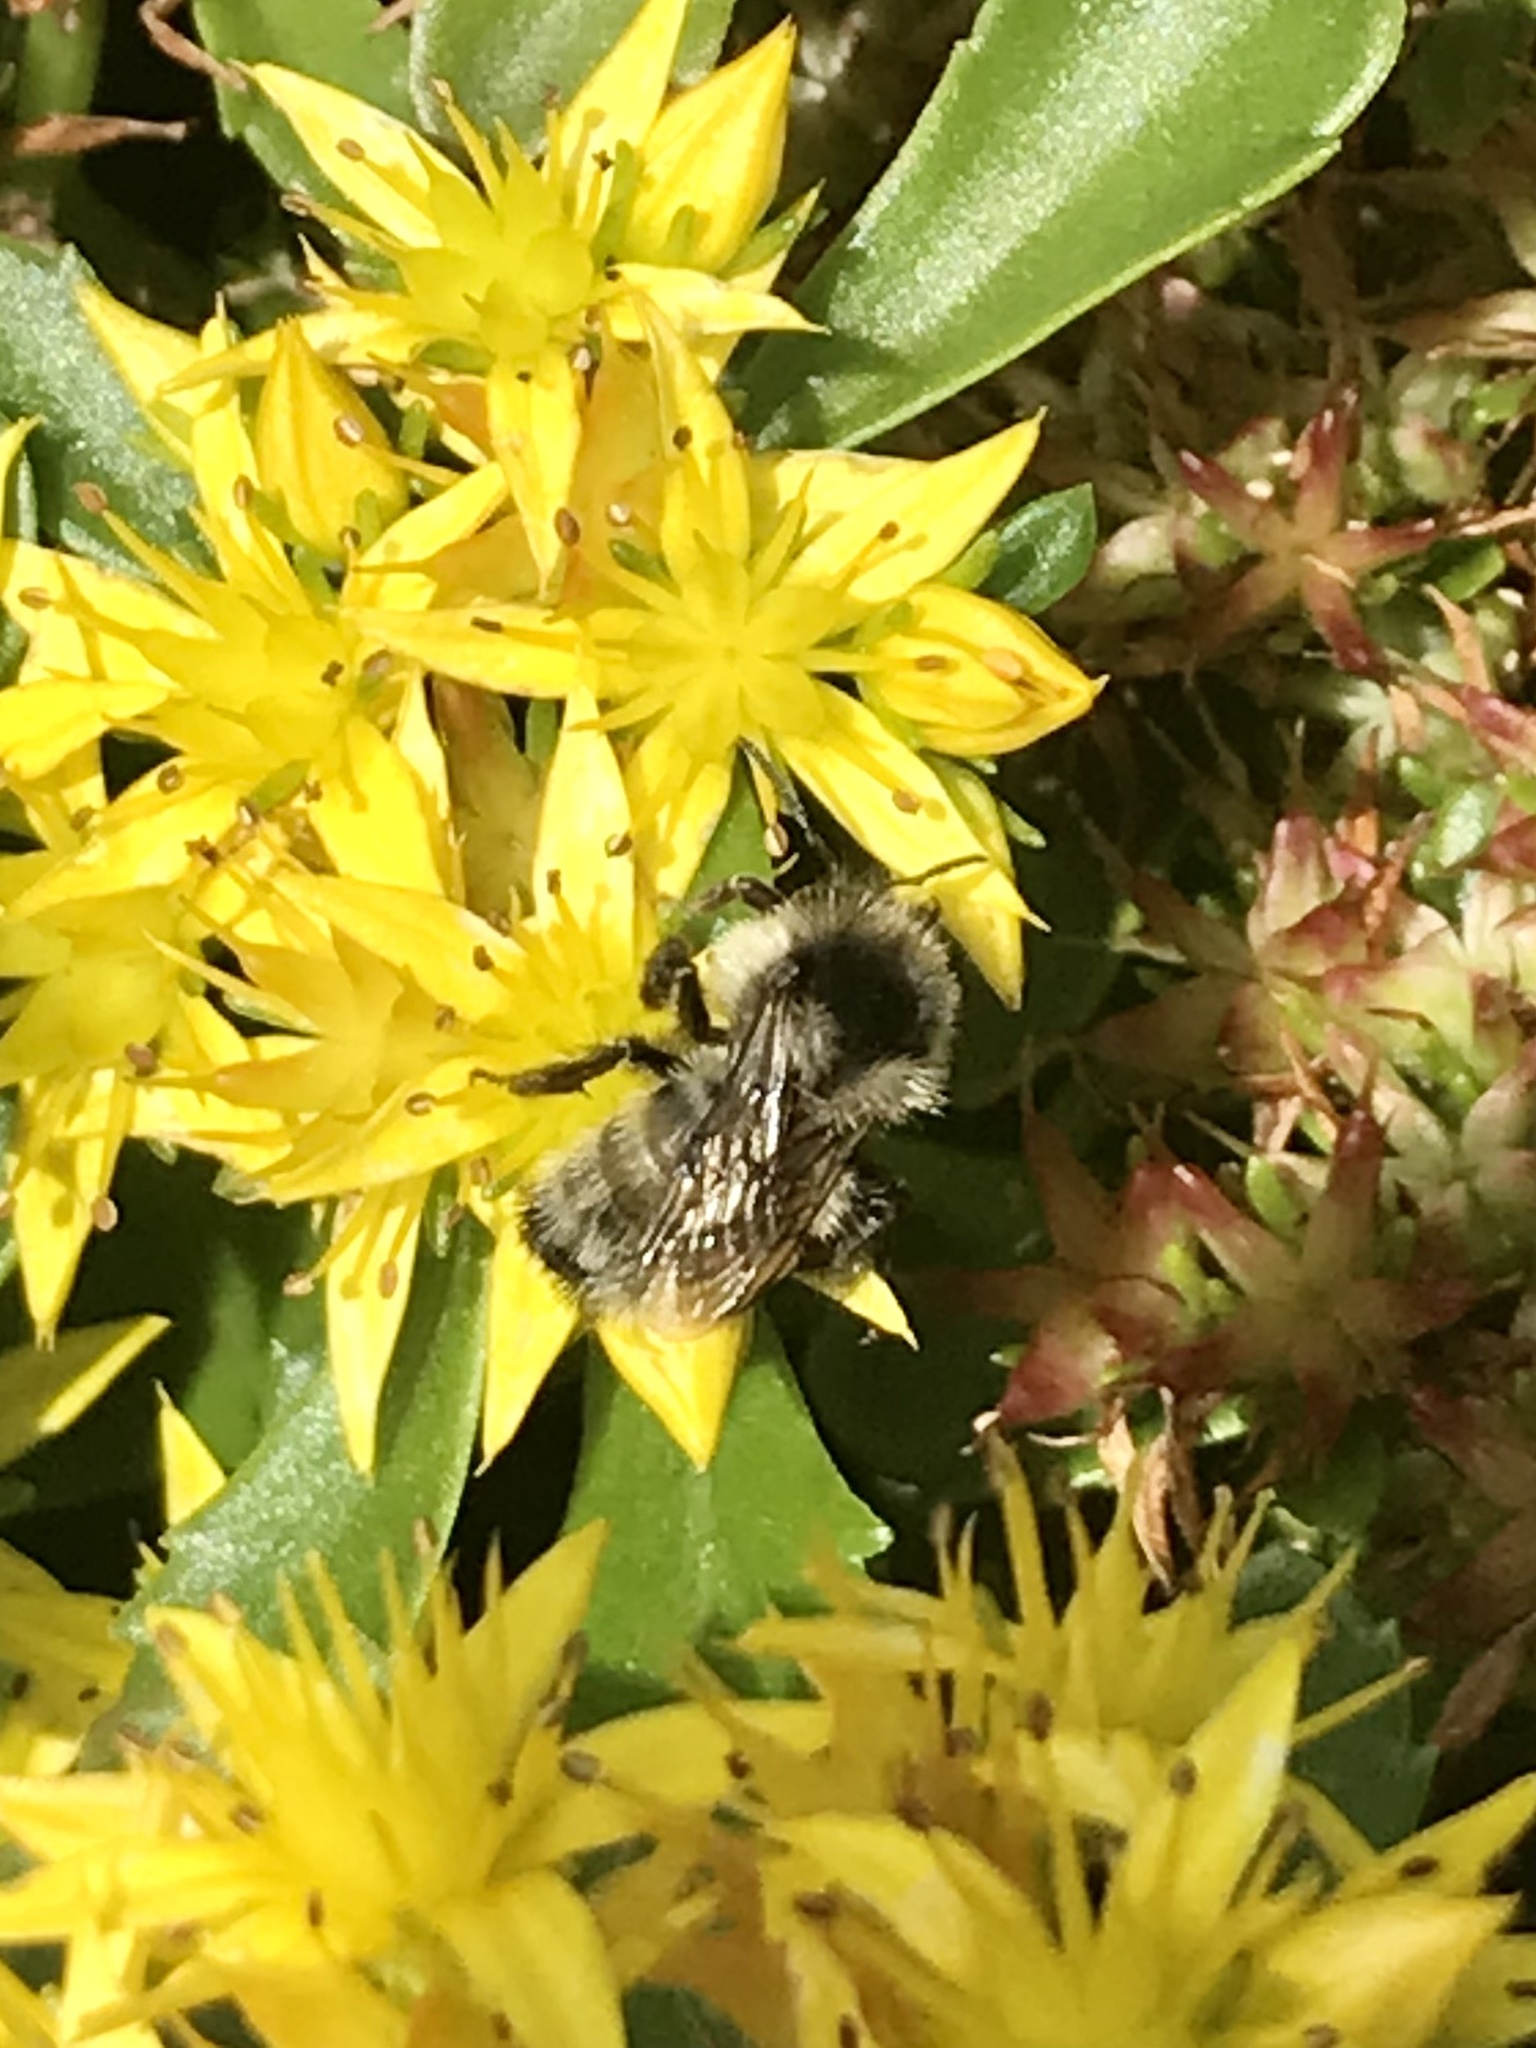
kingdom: Animalia
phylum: Arthropoda
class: Insecta
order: Hymenoptera
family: Apidae
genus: Bombus
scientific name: Bombus ternarius
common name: Tri-colored bumble bee
